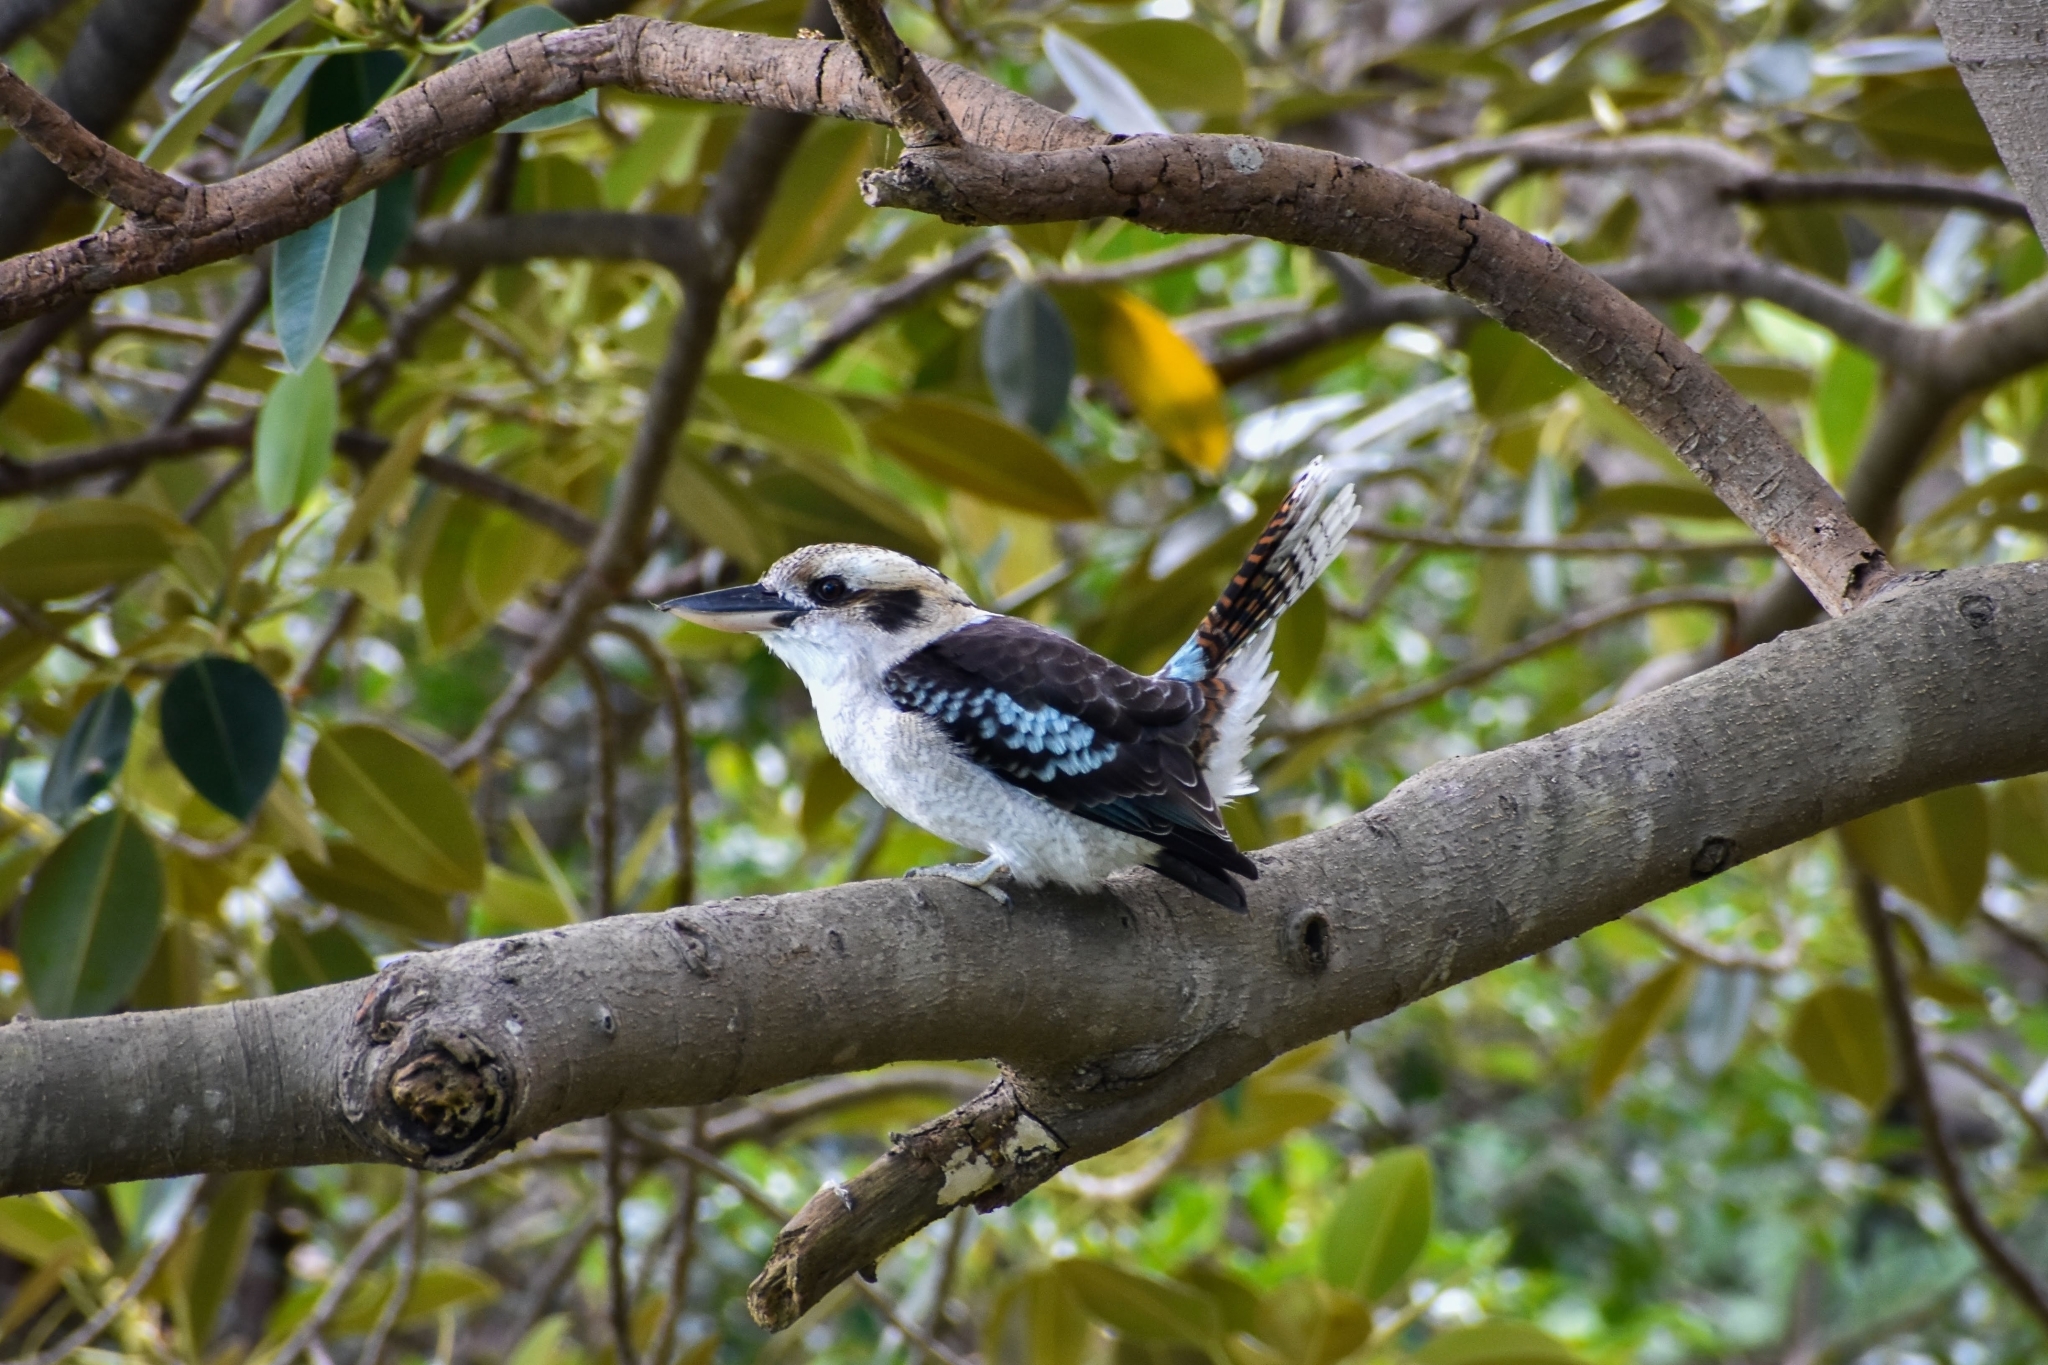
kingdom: Animalia
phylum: Chordata
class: Aves
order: Coraciiformes
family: Alcedinidae
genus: Dacelo
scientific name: Dacelo novaeguineae
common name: Laughing kookaburra
